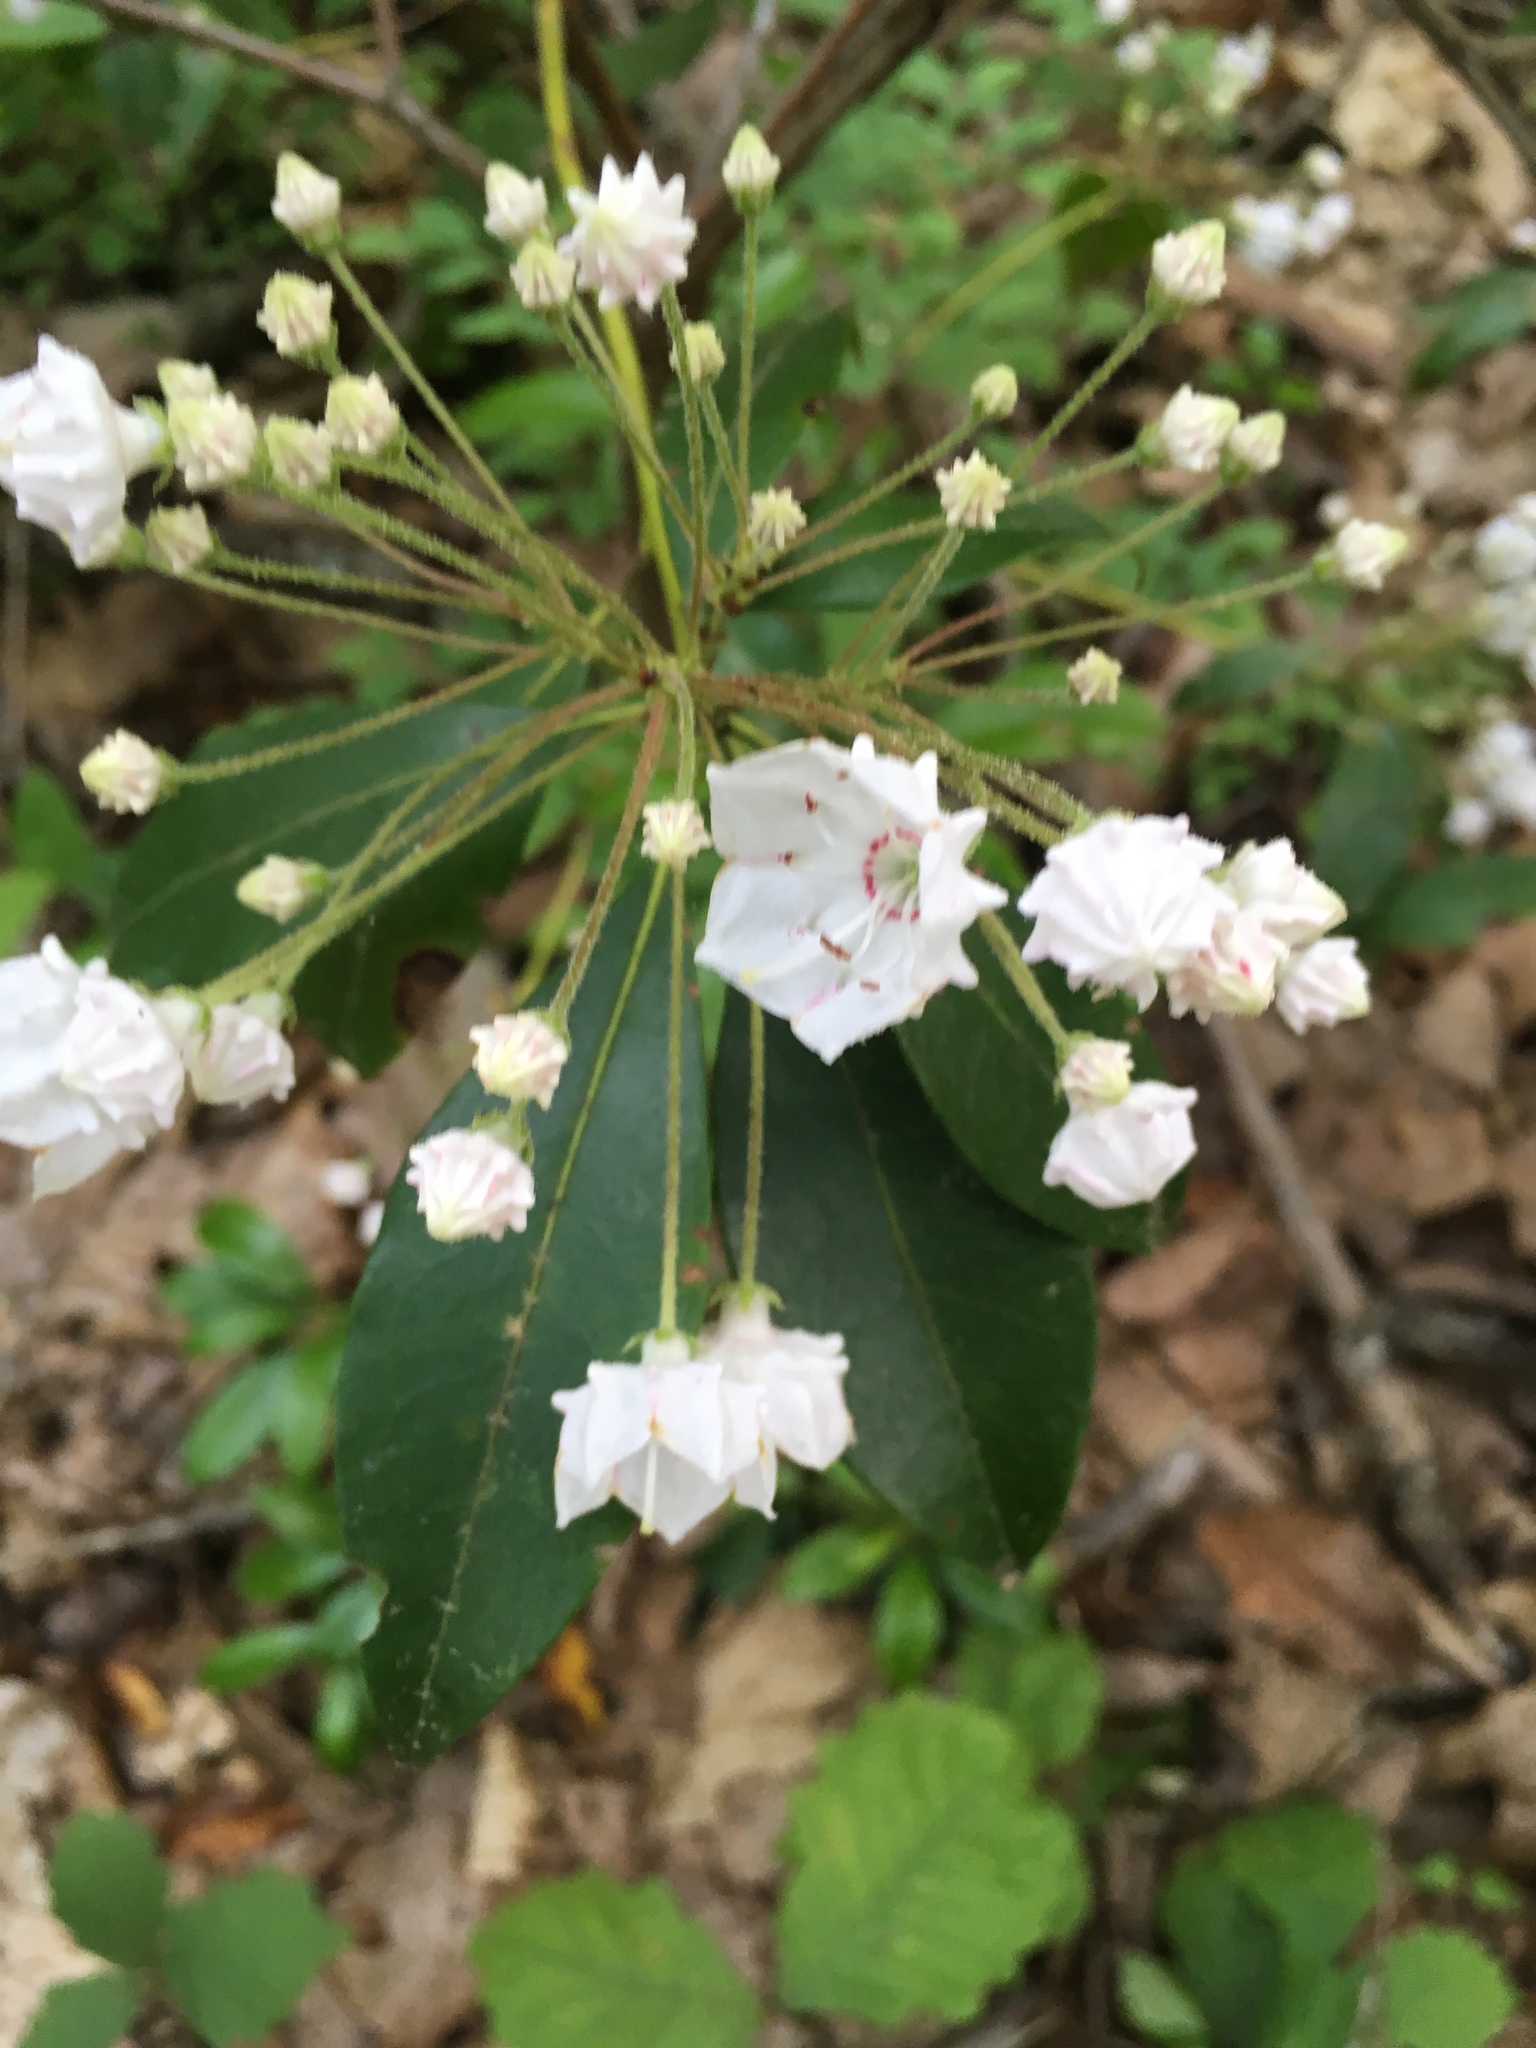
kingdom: Plantae
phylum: Tracheophyta
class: Magnoliopsida
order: Ericales
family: Ericaceae
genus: Kalmia
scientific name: Kalmia latifolia
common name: Mountain-laurel
